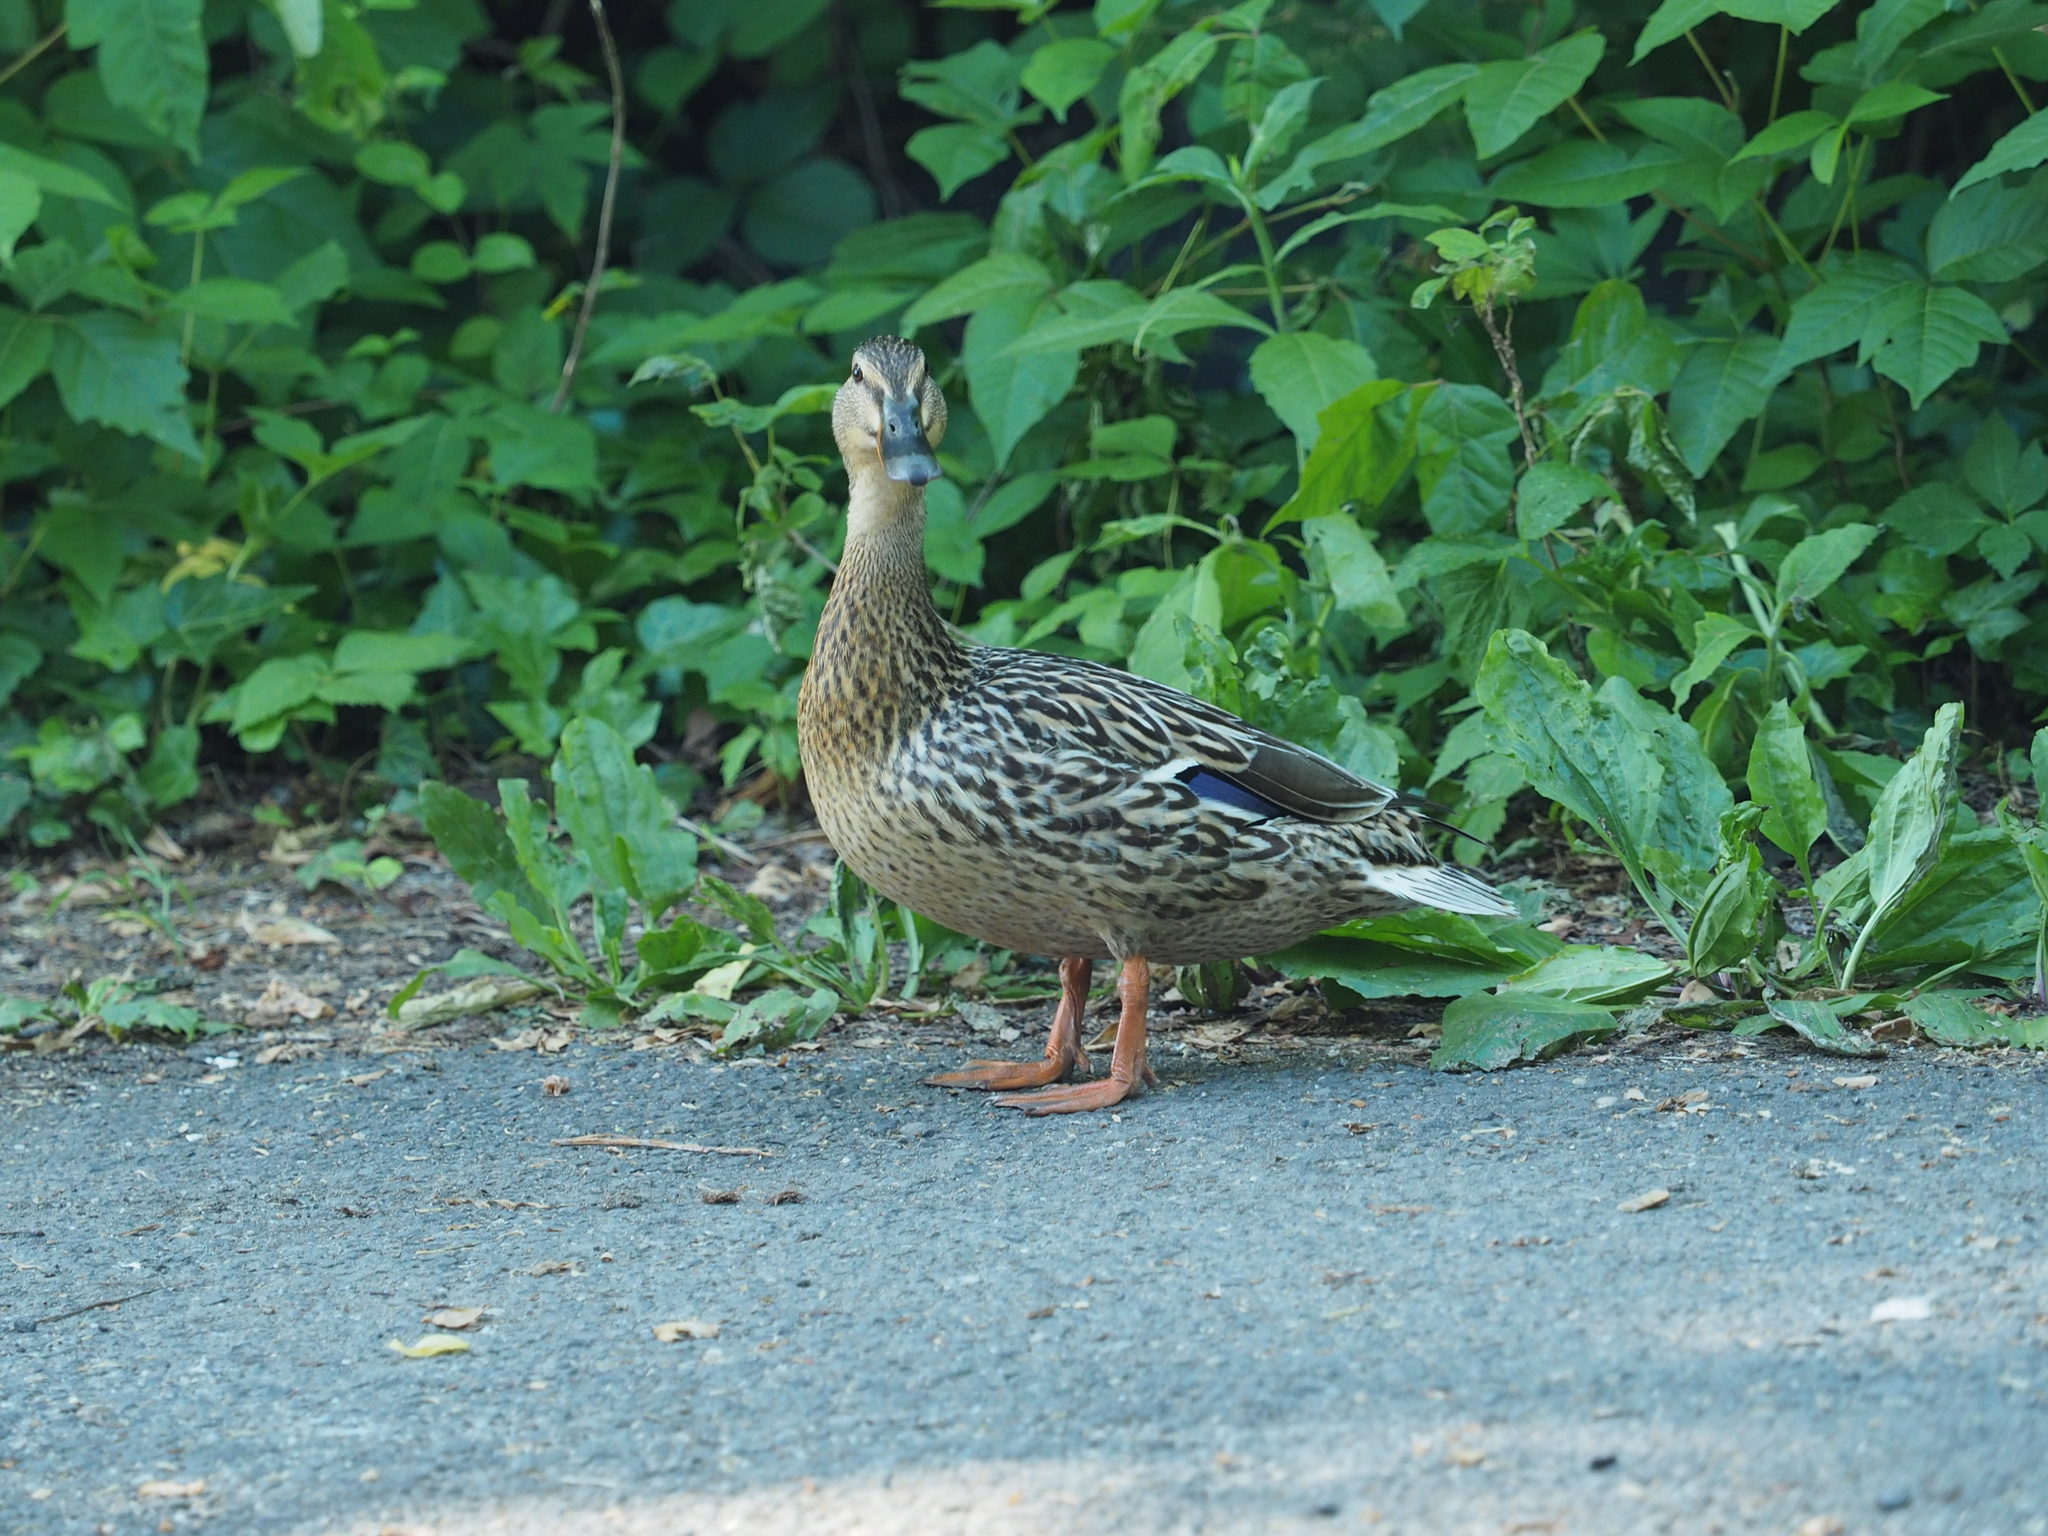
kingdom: Animalia
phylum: Chordata
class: Aves
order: Anseriformes
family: Anatidae
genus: Anas
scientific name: Anas platyrhynchos
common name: Mallard
